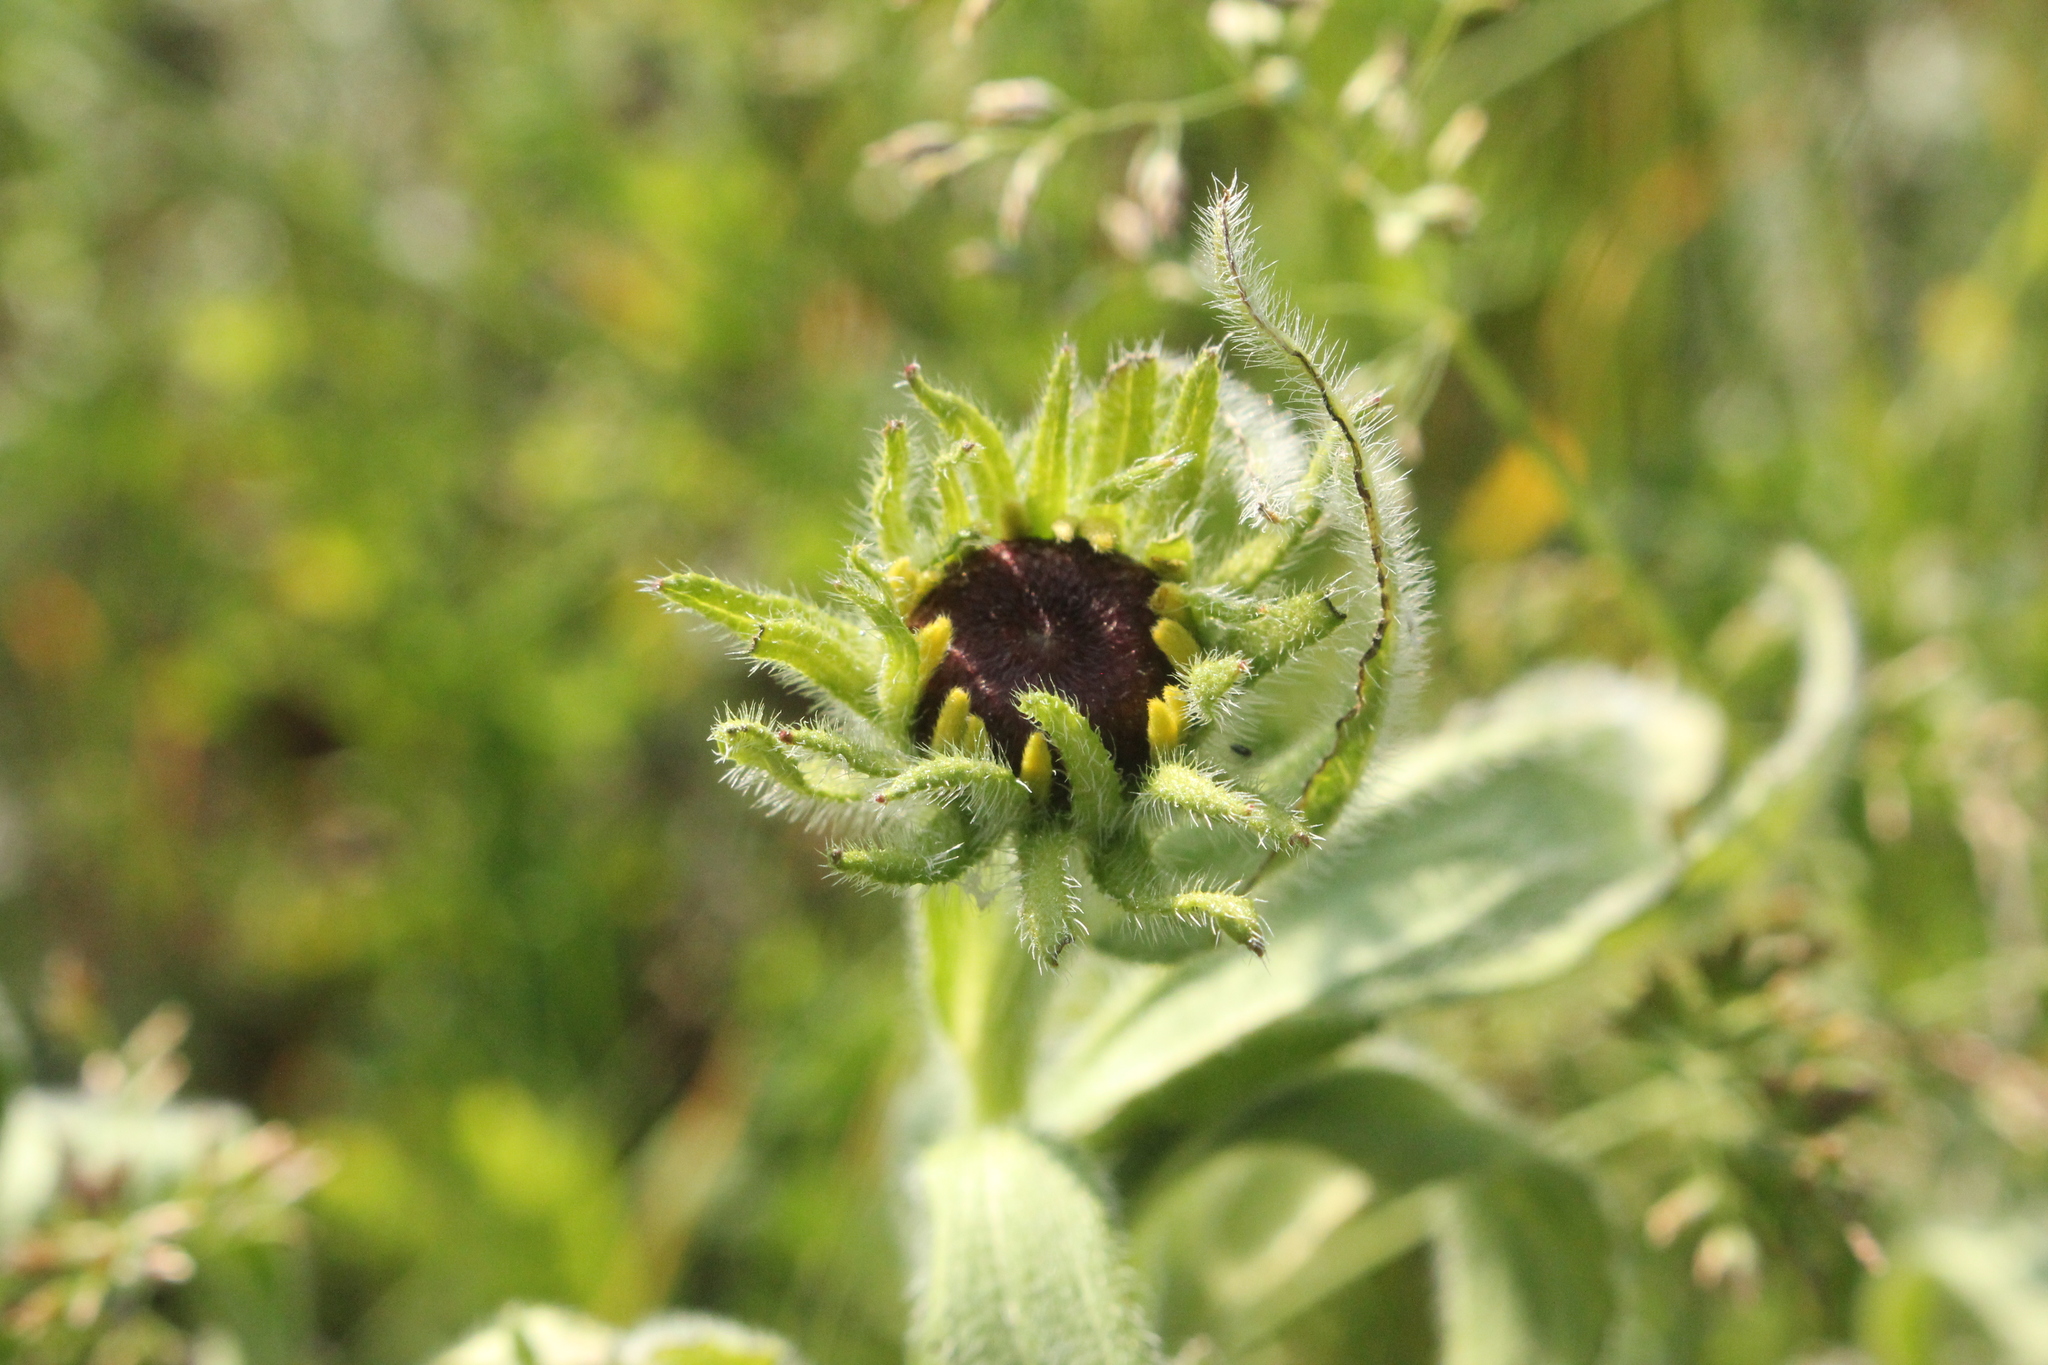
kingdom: Plantae
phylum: Tracheophyta
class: Magnoliopsida
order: Asterales
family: Asteraceae
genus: Rudbeckia
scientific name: Rudbeckia hirta
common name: Black-eyed-susan
